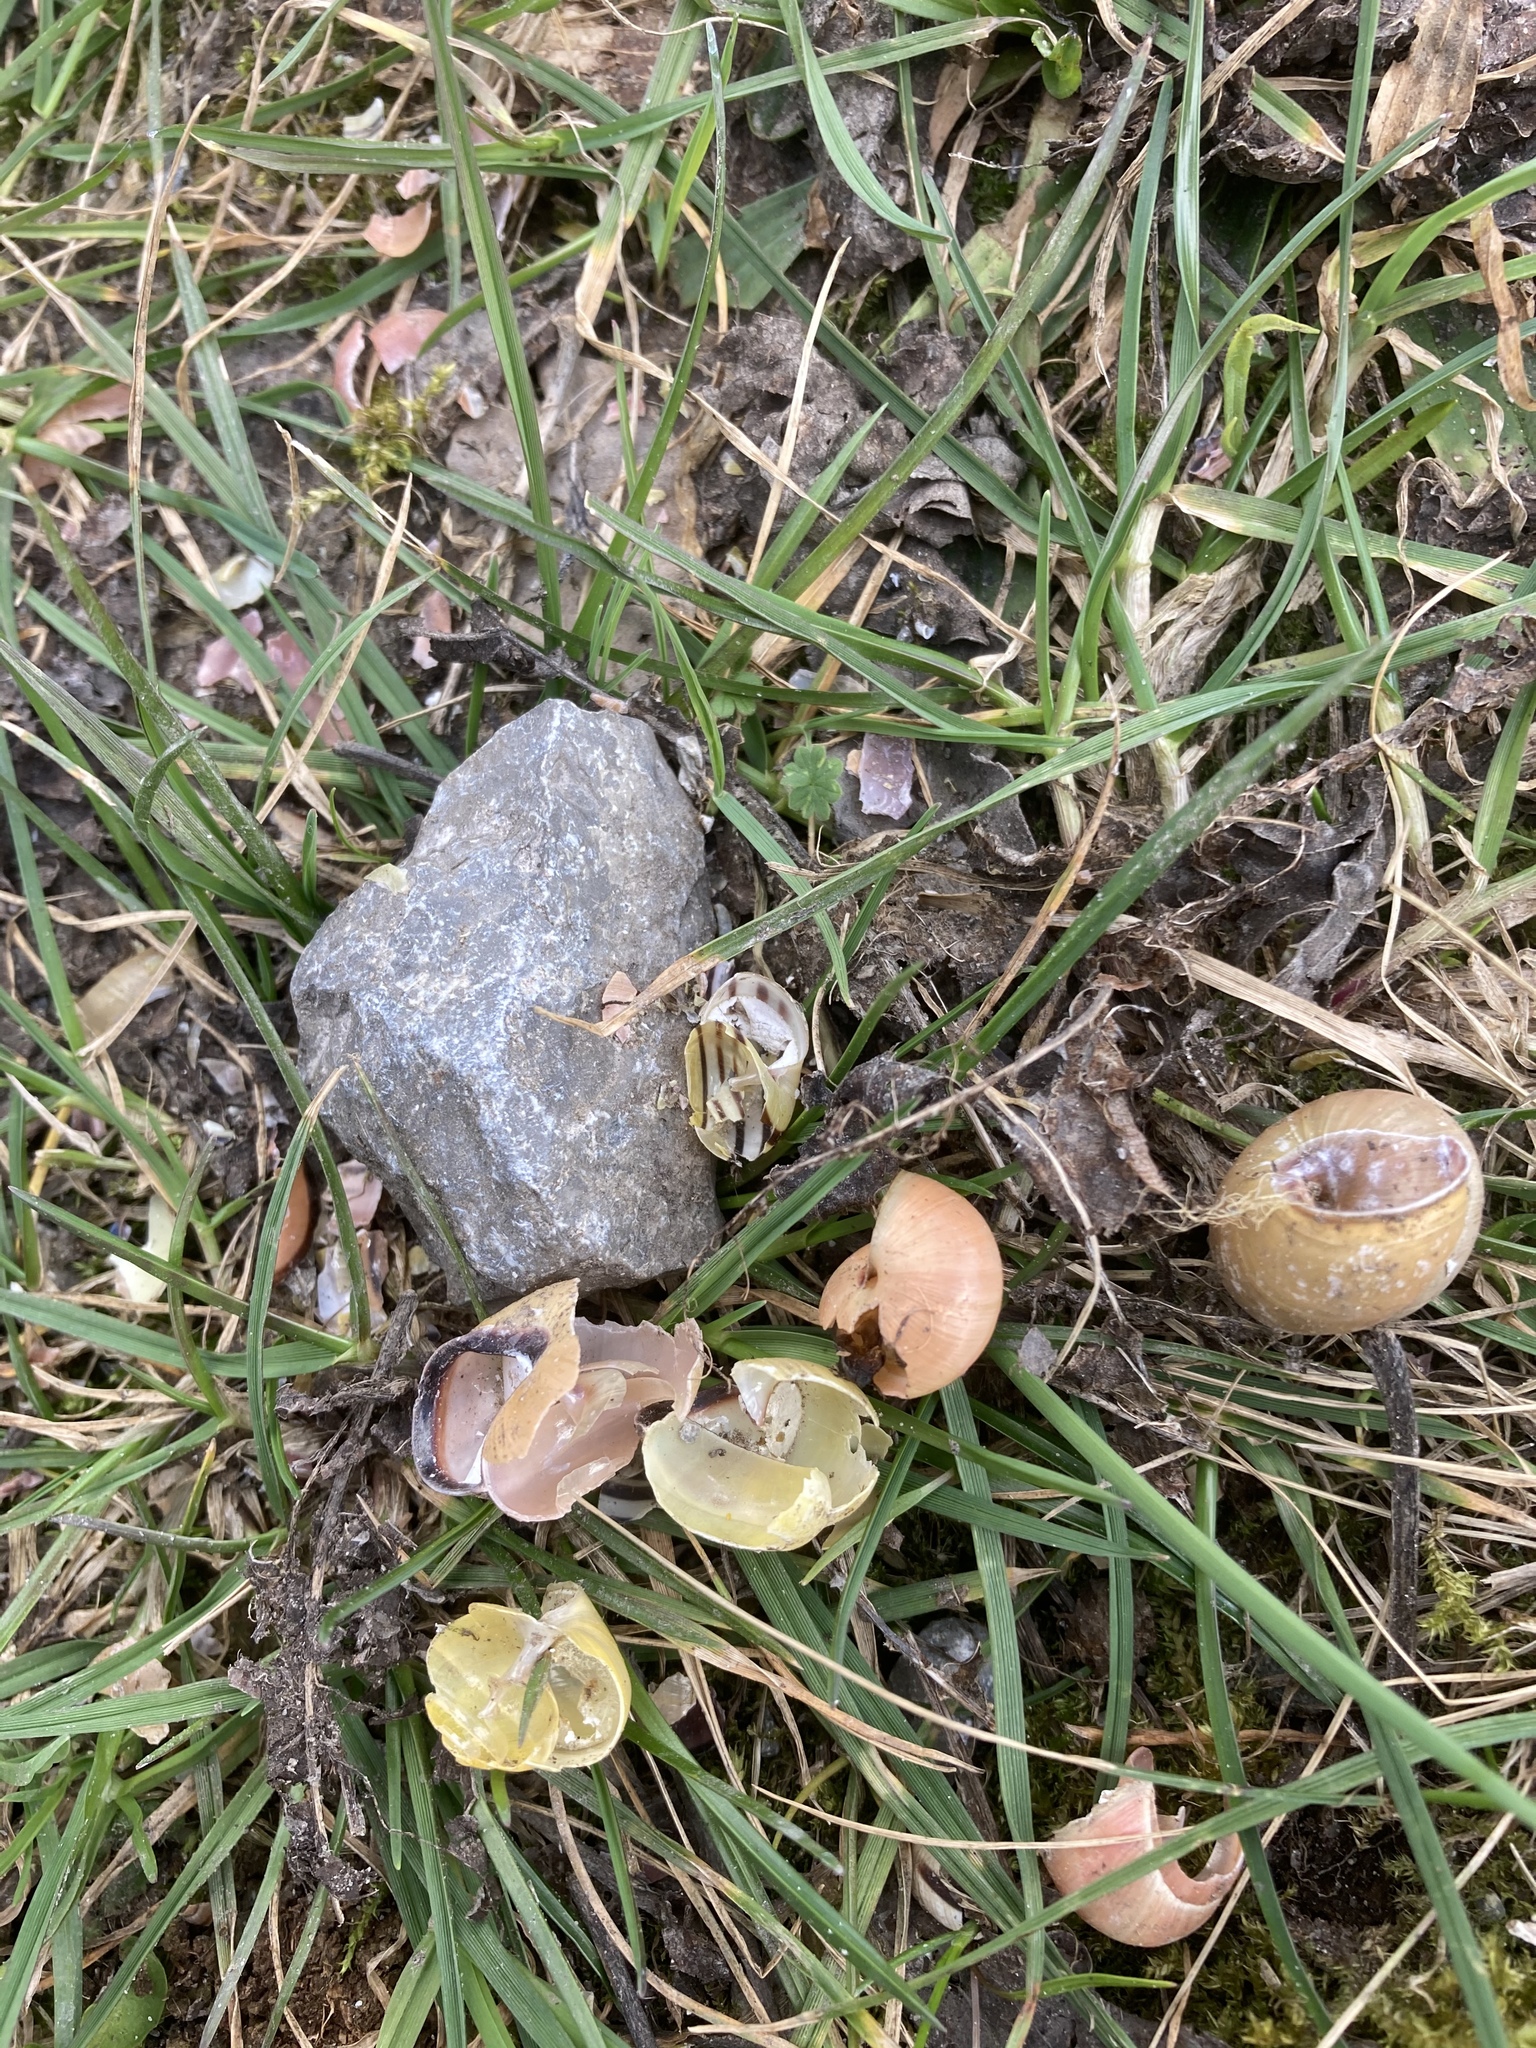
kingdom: Animalia
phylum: Mollusca
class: Gastropoda
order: Stylommatophora
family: Helicidae
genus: Cepaea
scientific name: Cepaea nemoralis
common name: Grovesnail
